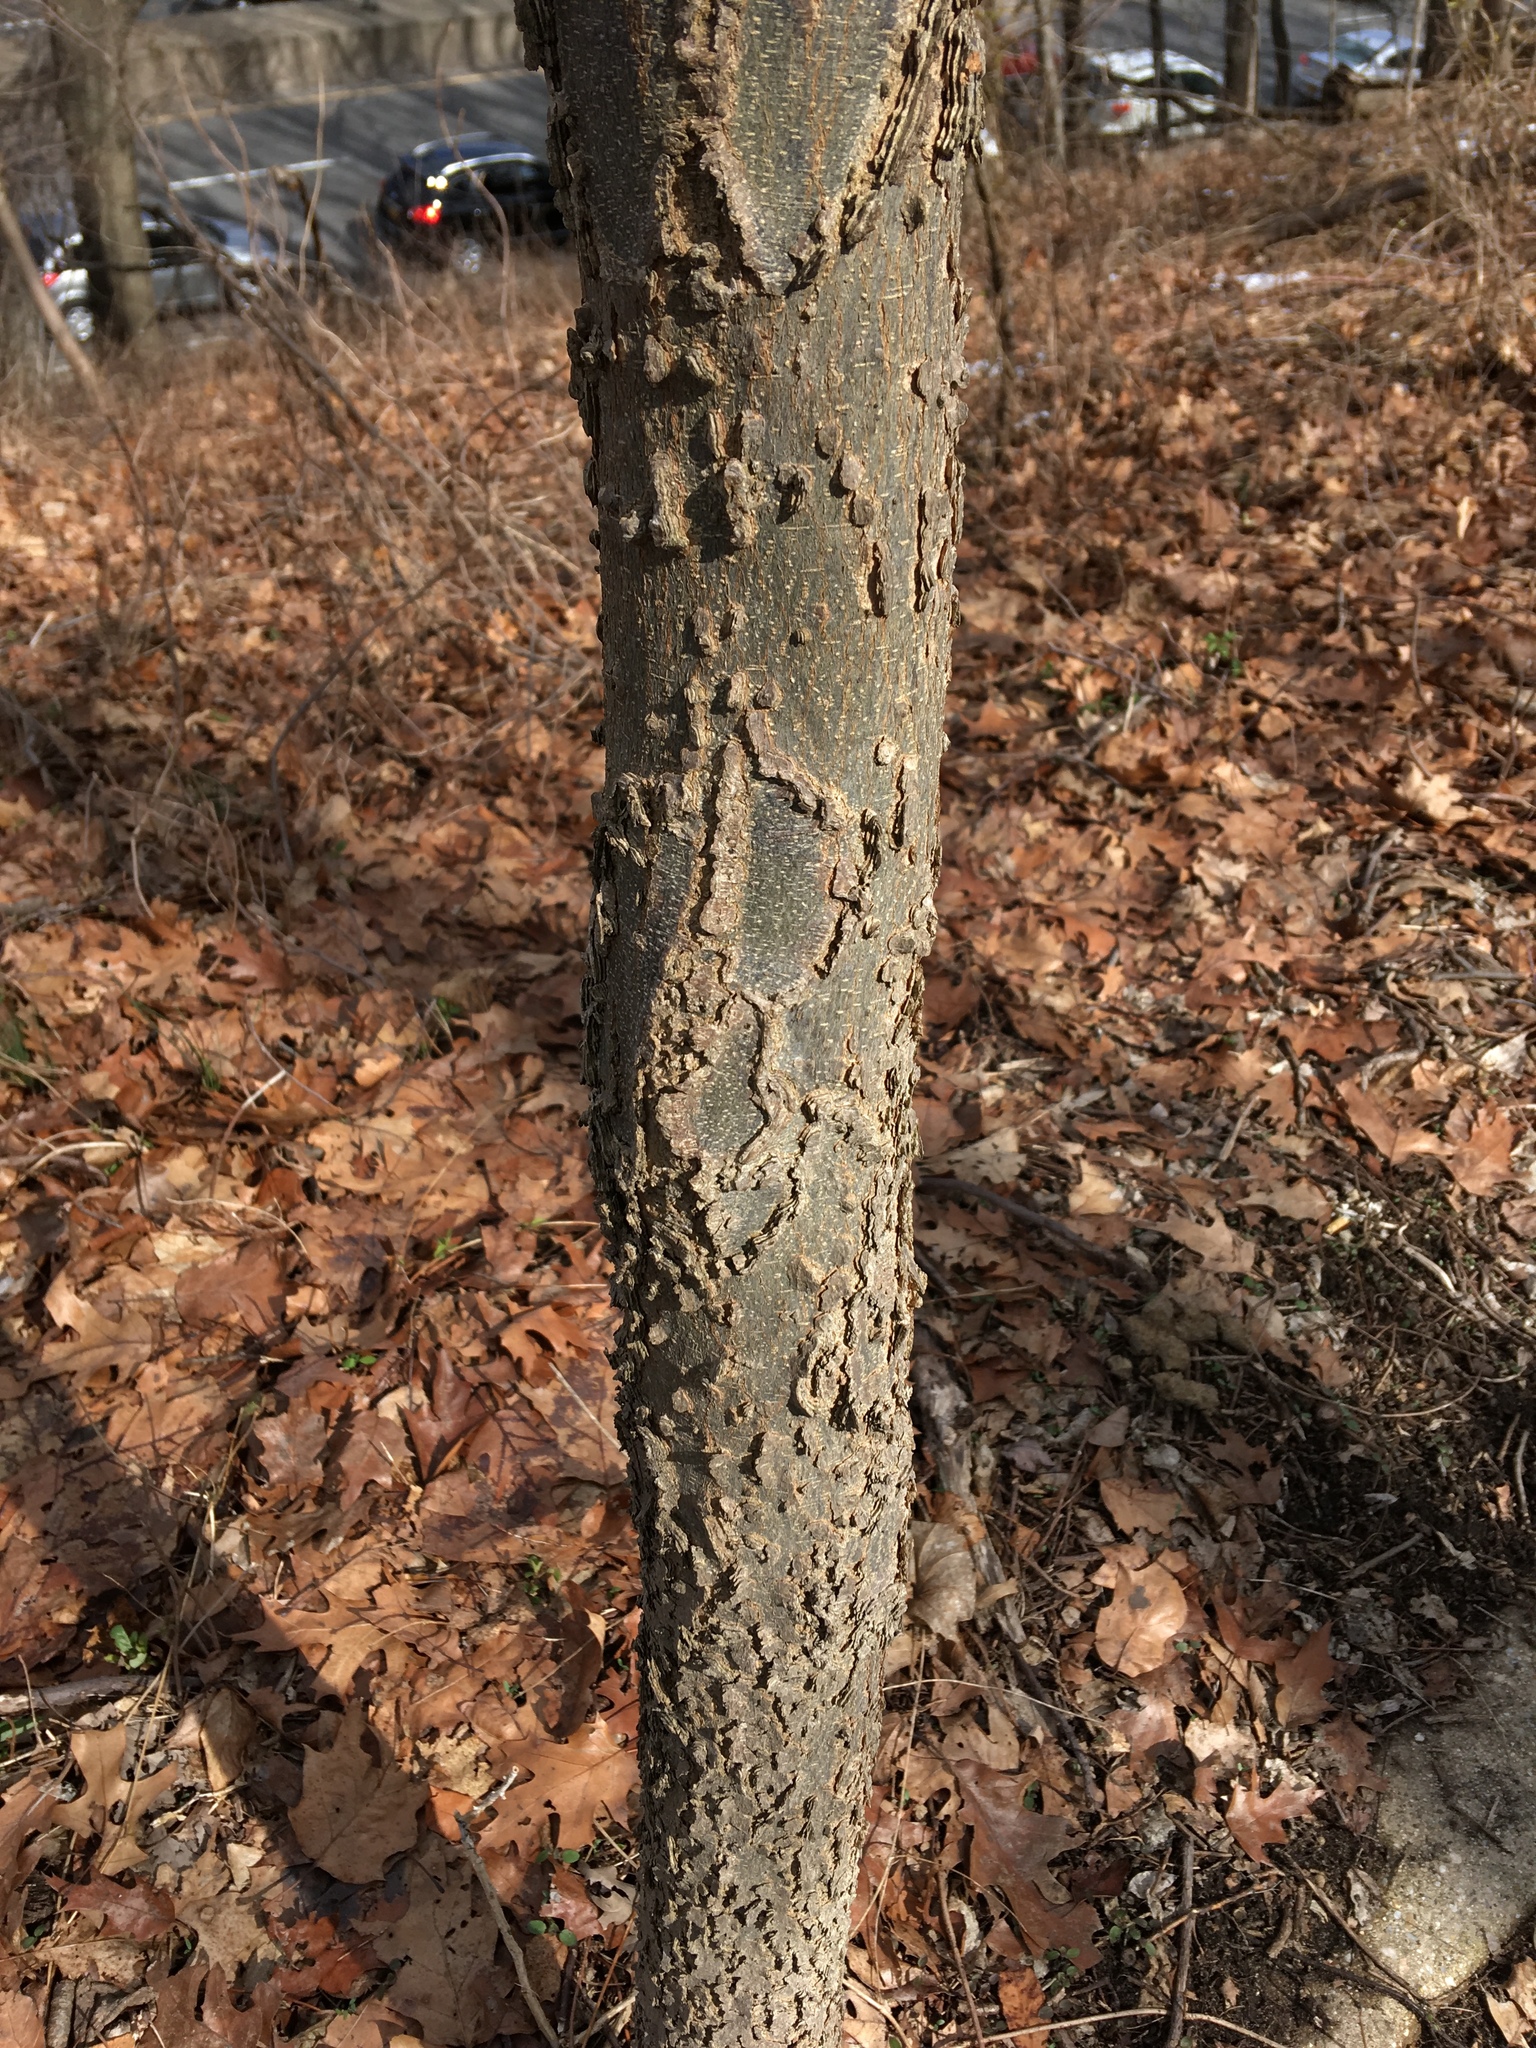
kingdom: Plantae
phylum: Tracheophyta
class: Magnoliopsida
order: Rosales
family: Cannabaceae
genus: Celtis
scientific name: Celtis occidentalis
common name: Common hackberry
